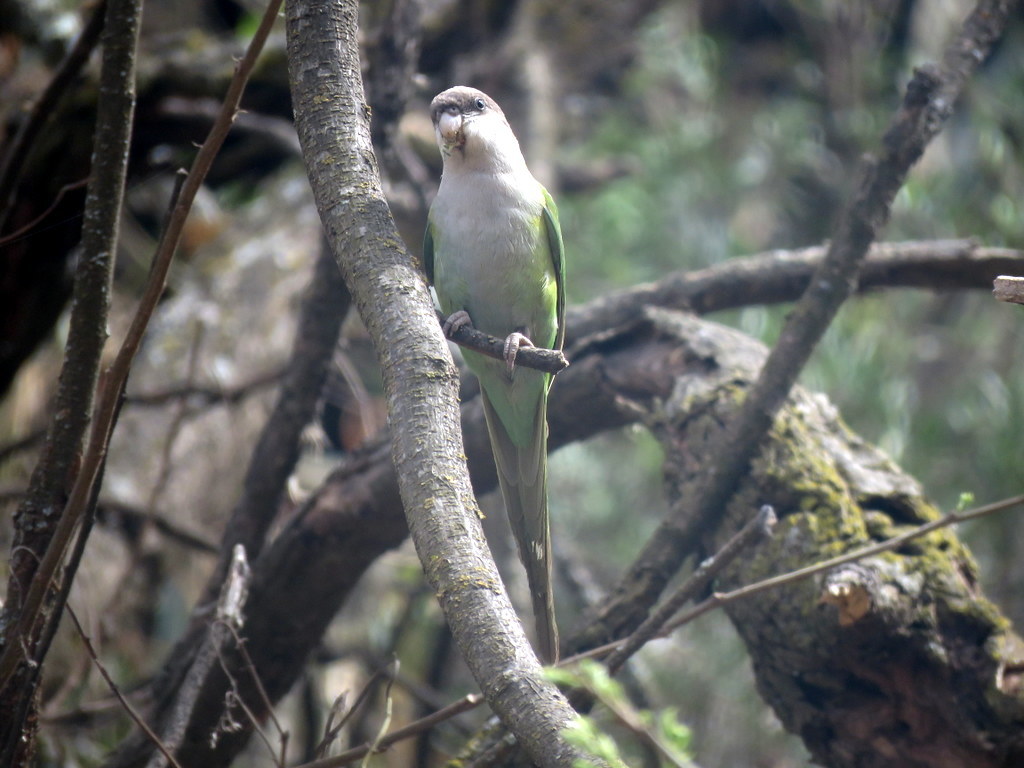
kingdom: Animalia
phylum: Chordata
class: Aves
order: Psittaciformes
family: Psittacidae
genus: Psilopsiagon
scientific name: Psilopsiagon aymara
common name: Grey-hooded parakeet
